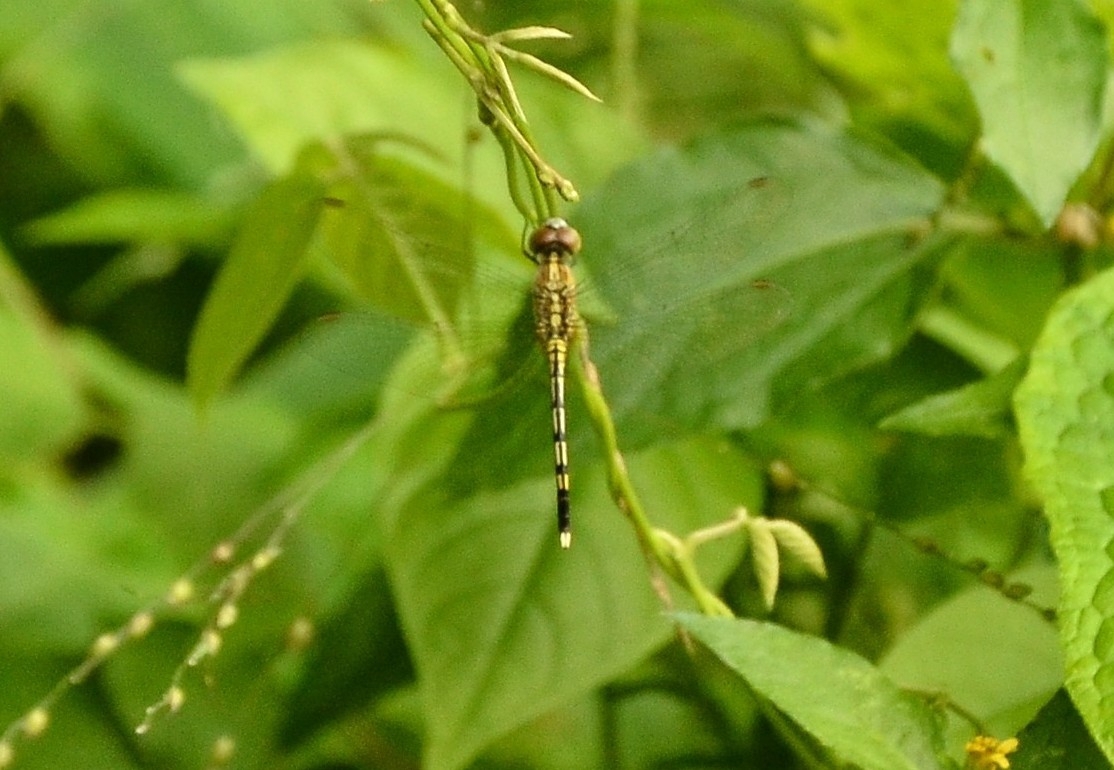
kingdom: Animalia
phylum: Arthropoda
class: Insecta
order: Odonata
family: Libellulidae
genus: Diplacodes
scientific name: Diplacodes trivialis
